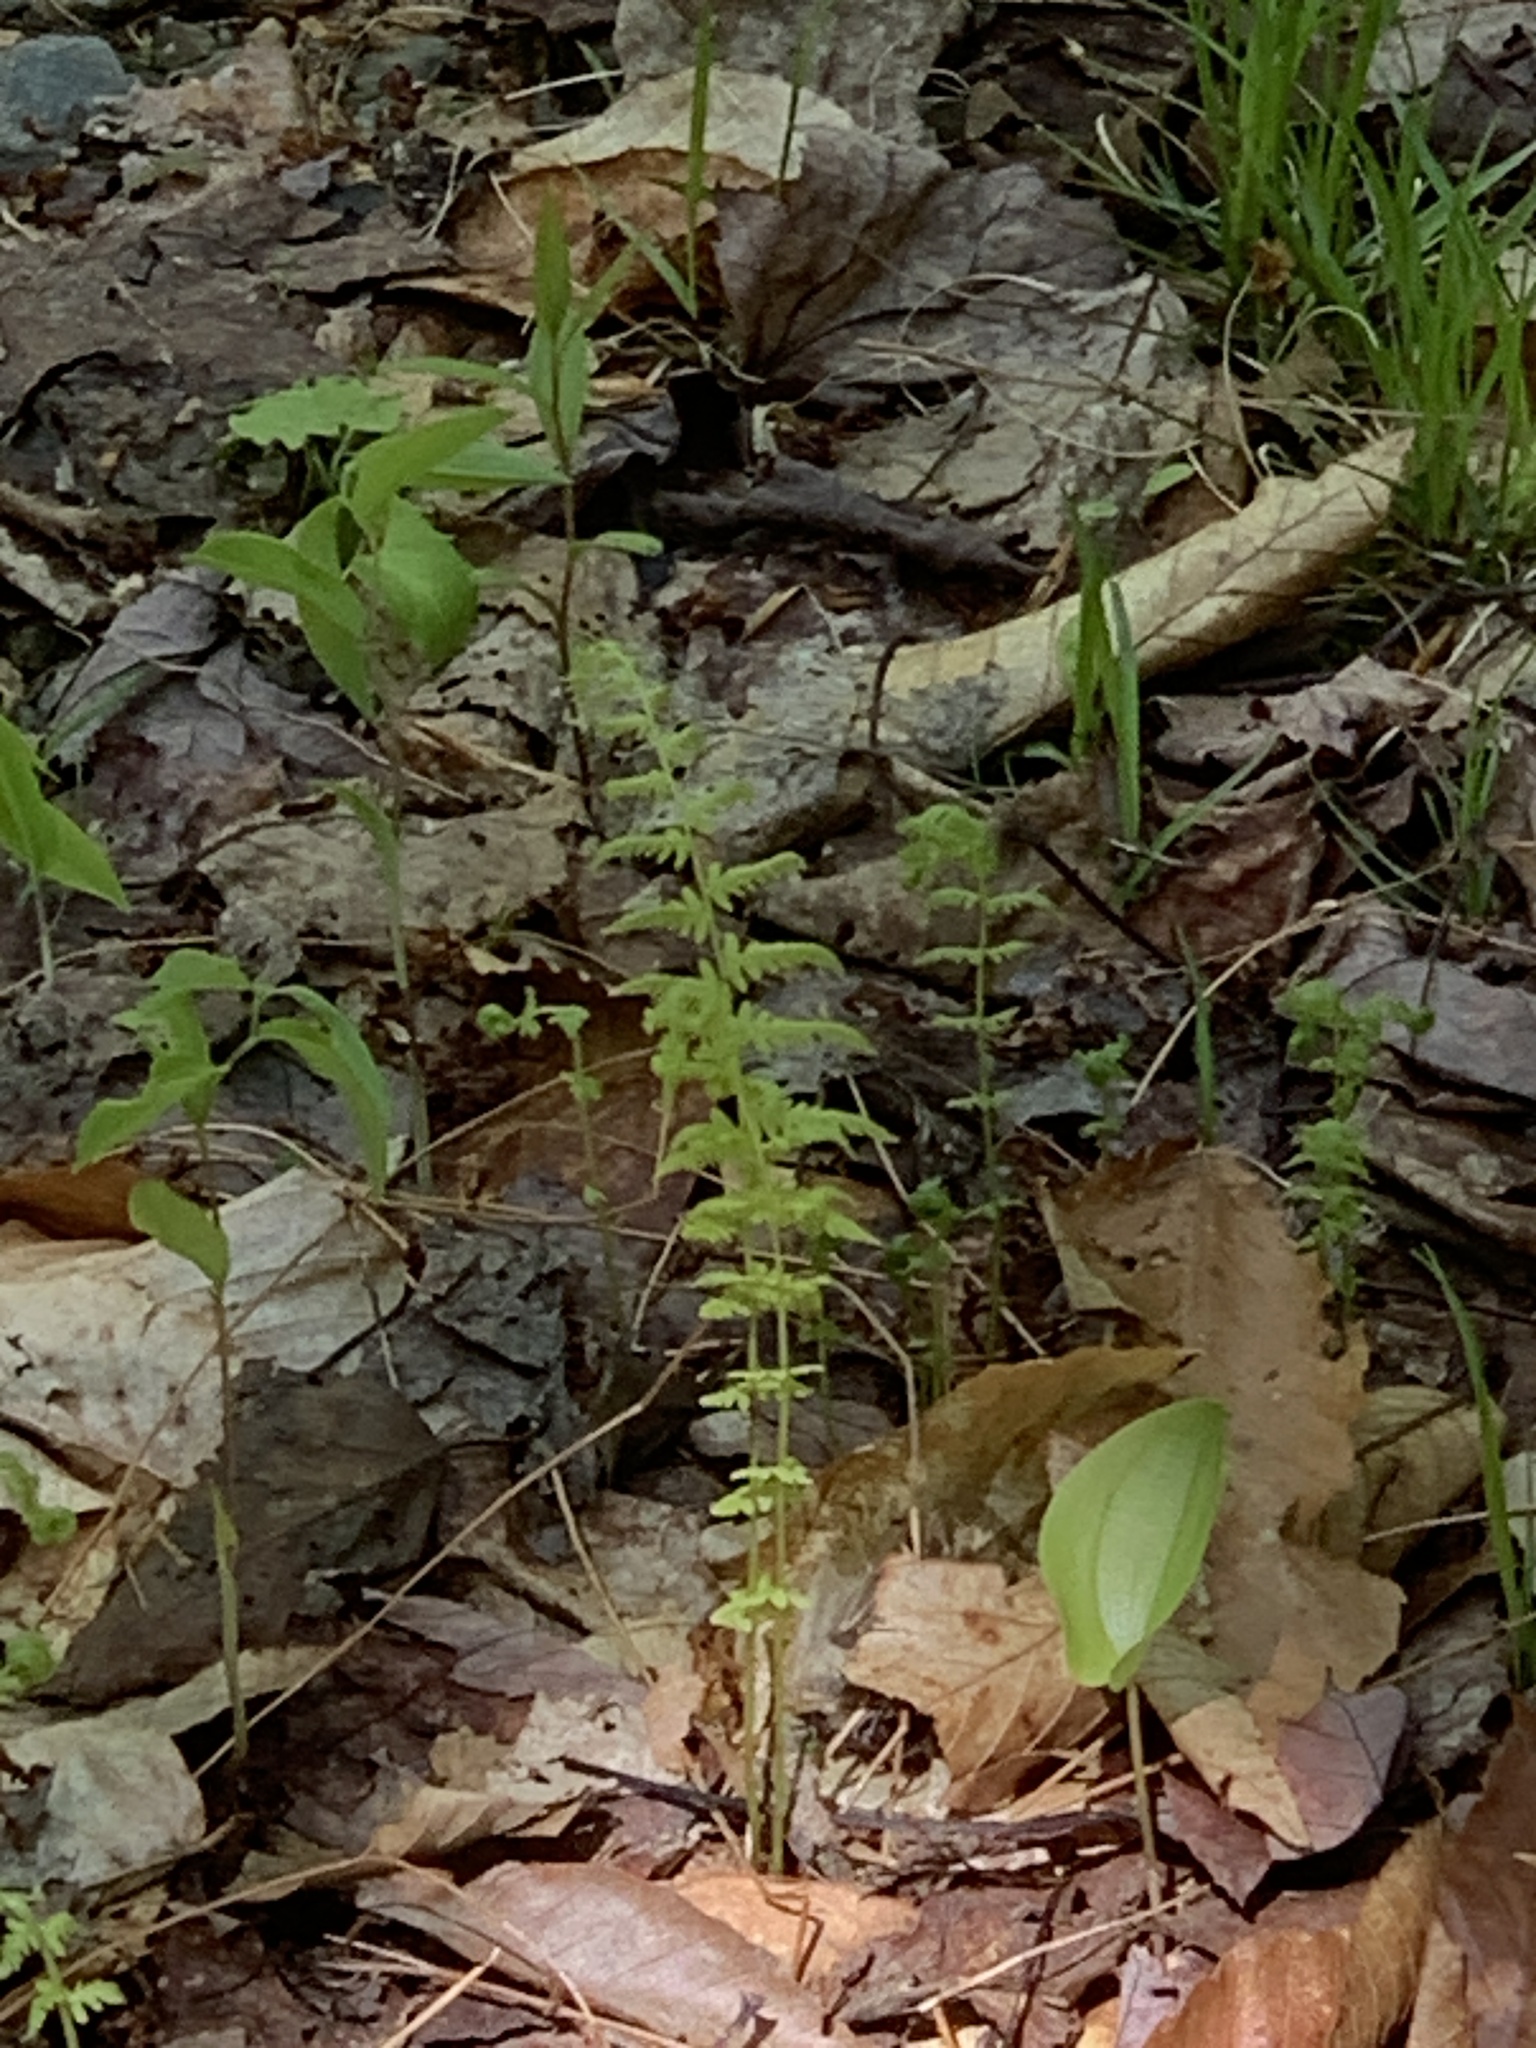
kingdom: Plantae
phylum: Tracheophyta
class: Polypodiopsida
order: Polypodiales
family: Thelypteridaceae
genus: Amauropelta
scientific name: Amauropelta noveboracensis
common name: New york fern
